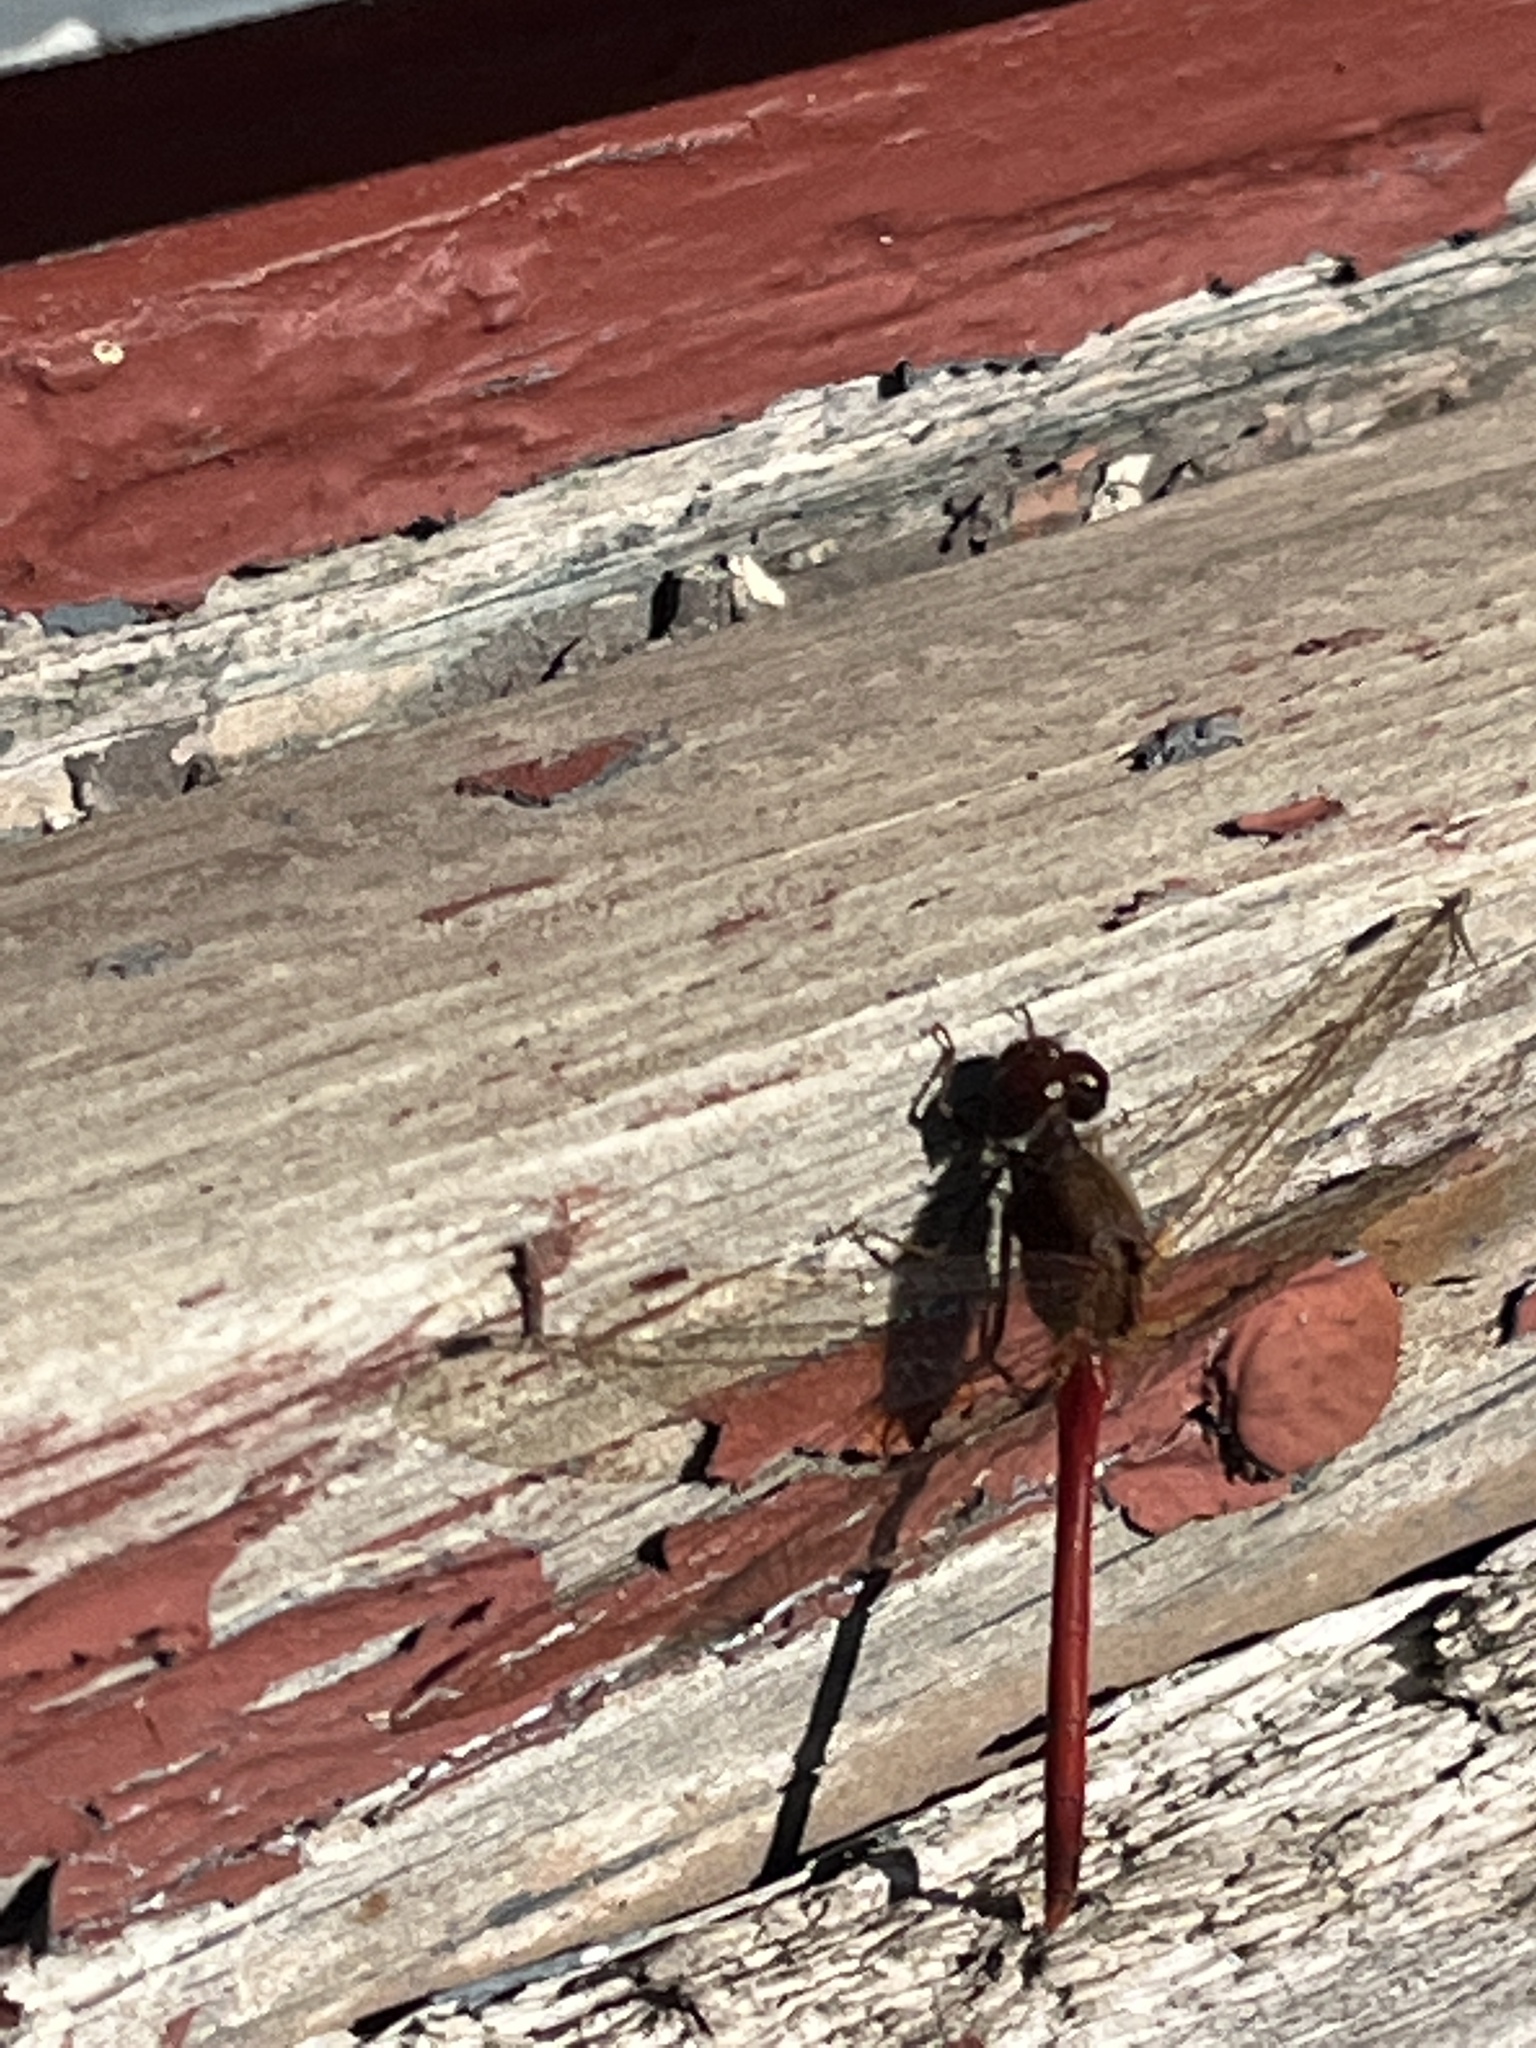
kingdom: Animalia
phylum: Arthropoda
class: Insecta
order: Odonata
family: Libellulidae
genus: Sympetrum
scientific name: Sympetrum vicinum
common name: Autumn meadowhawk
